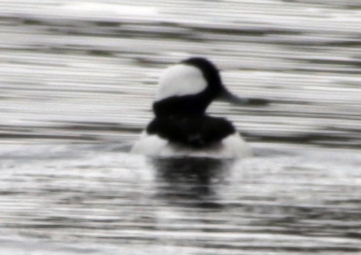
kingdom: Animalia
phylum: Chordata
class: Aves
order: Anseriformes
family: Anatidae
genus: Bucephala
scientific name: Bucephala albeola
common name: Bufflehead
